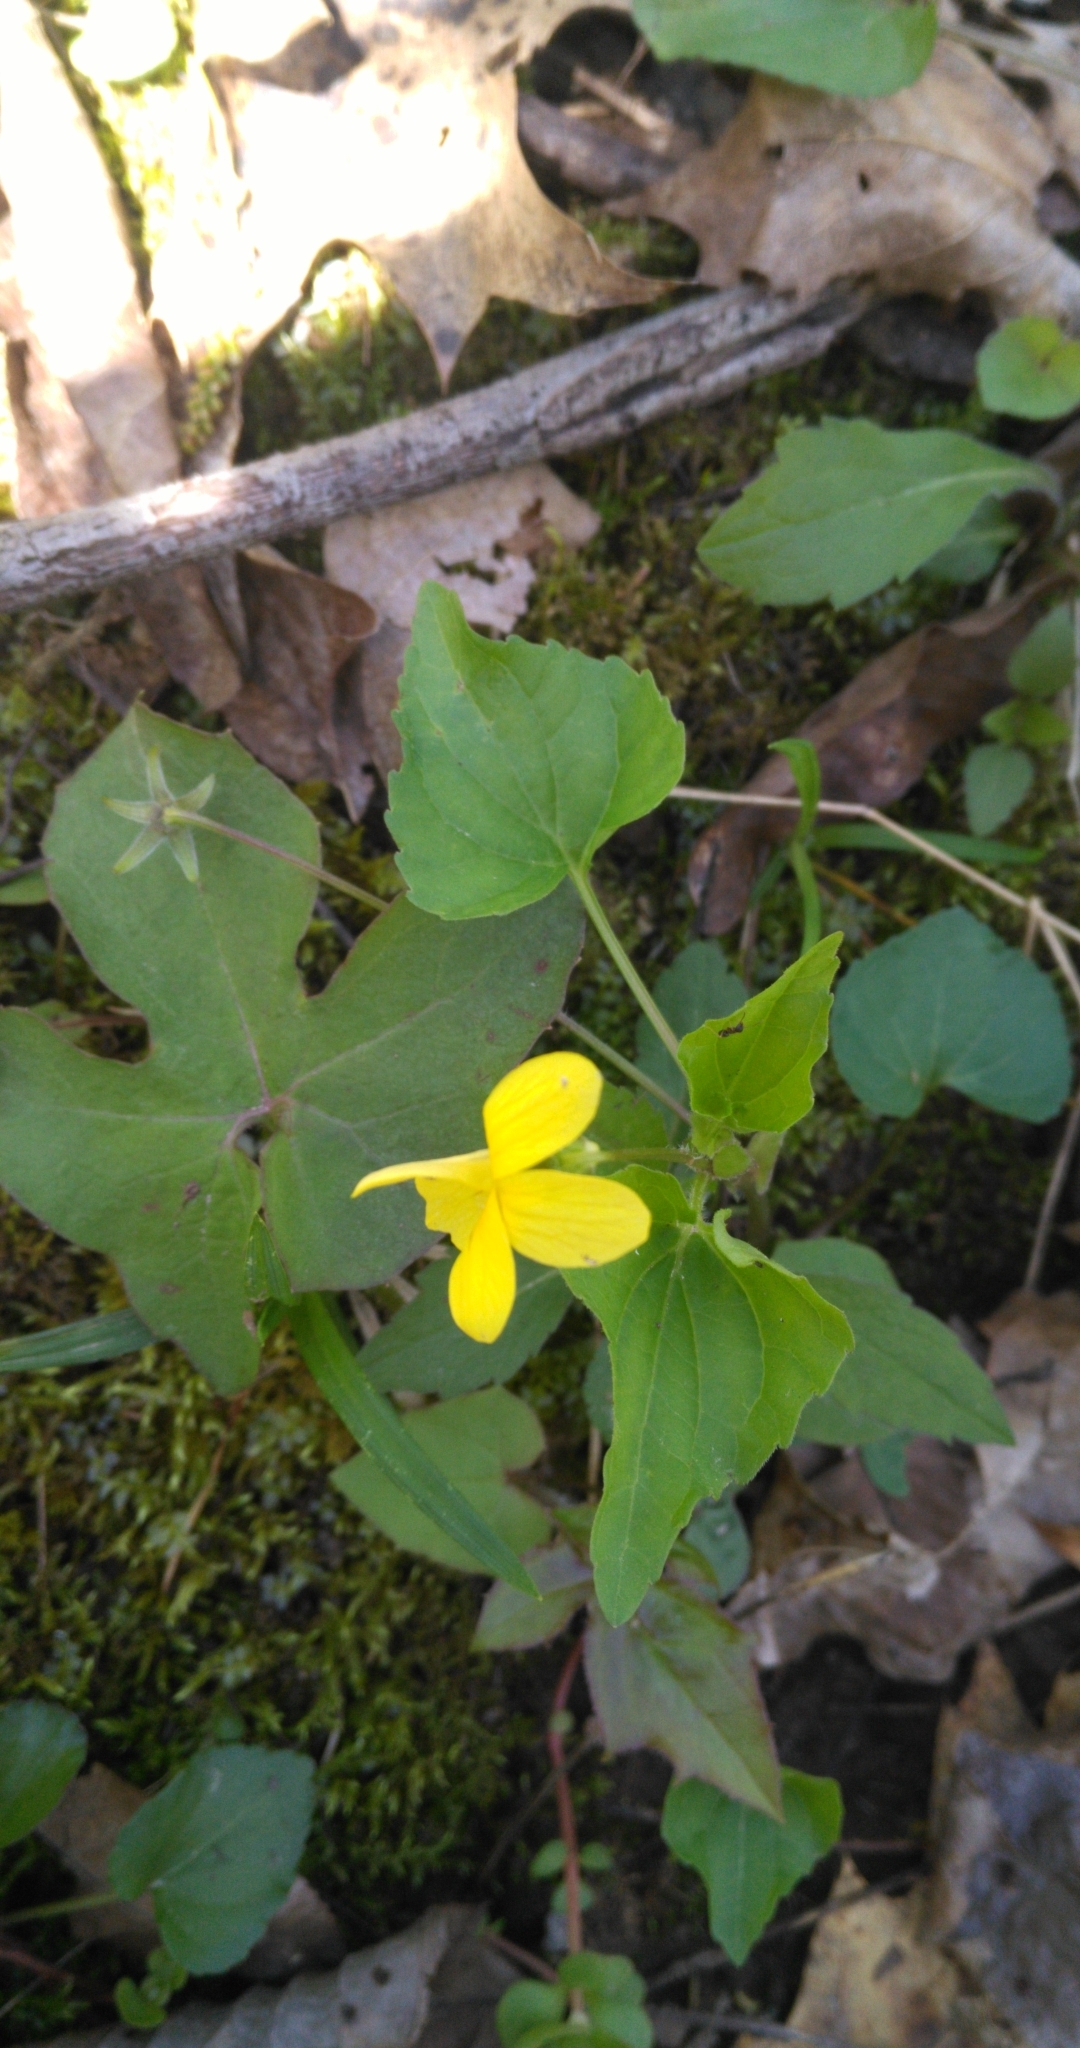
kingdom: Plantae
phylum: Tracheophyta
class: Magnoliopsida
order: Malpighiales
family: Violaceae
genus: Viola
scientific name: Viola eriocarpa
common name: Smooth yellow violet
